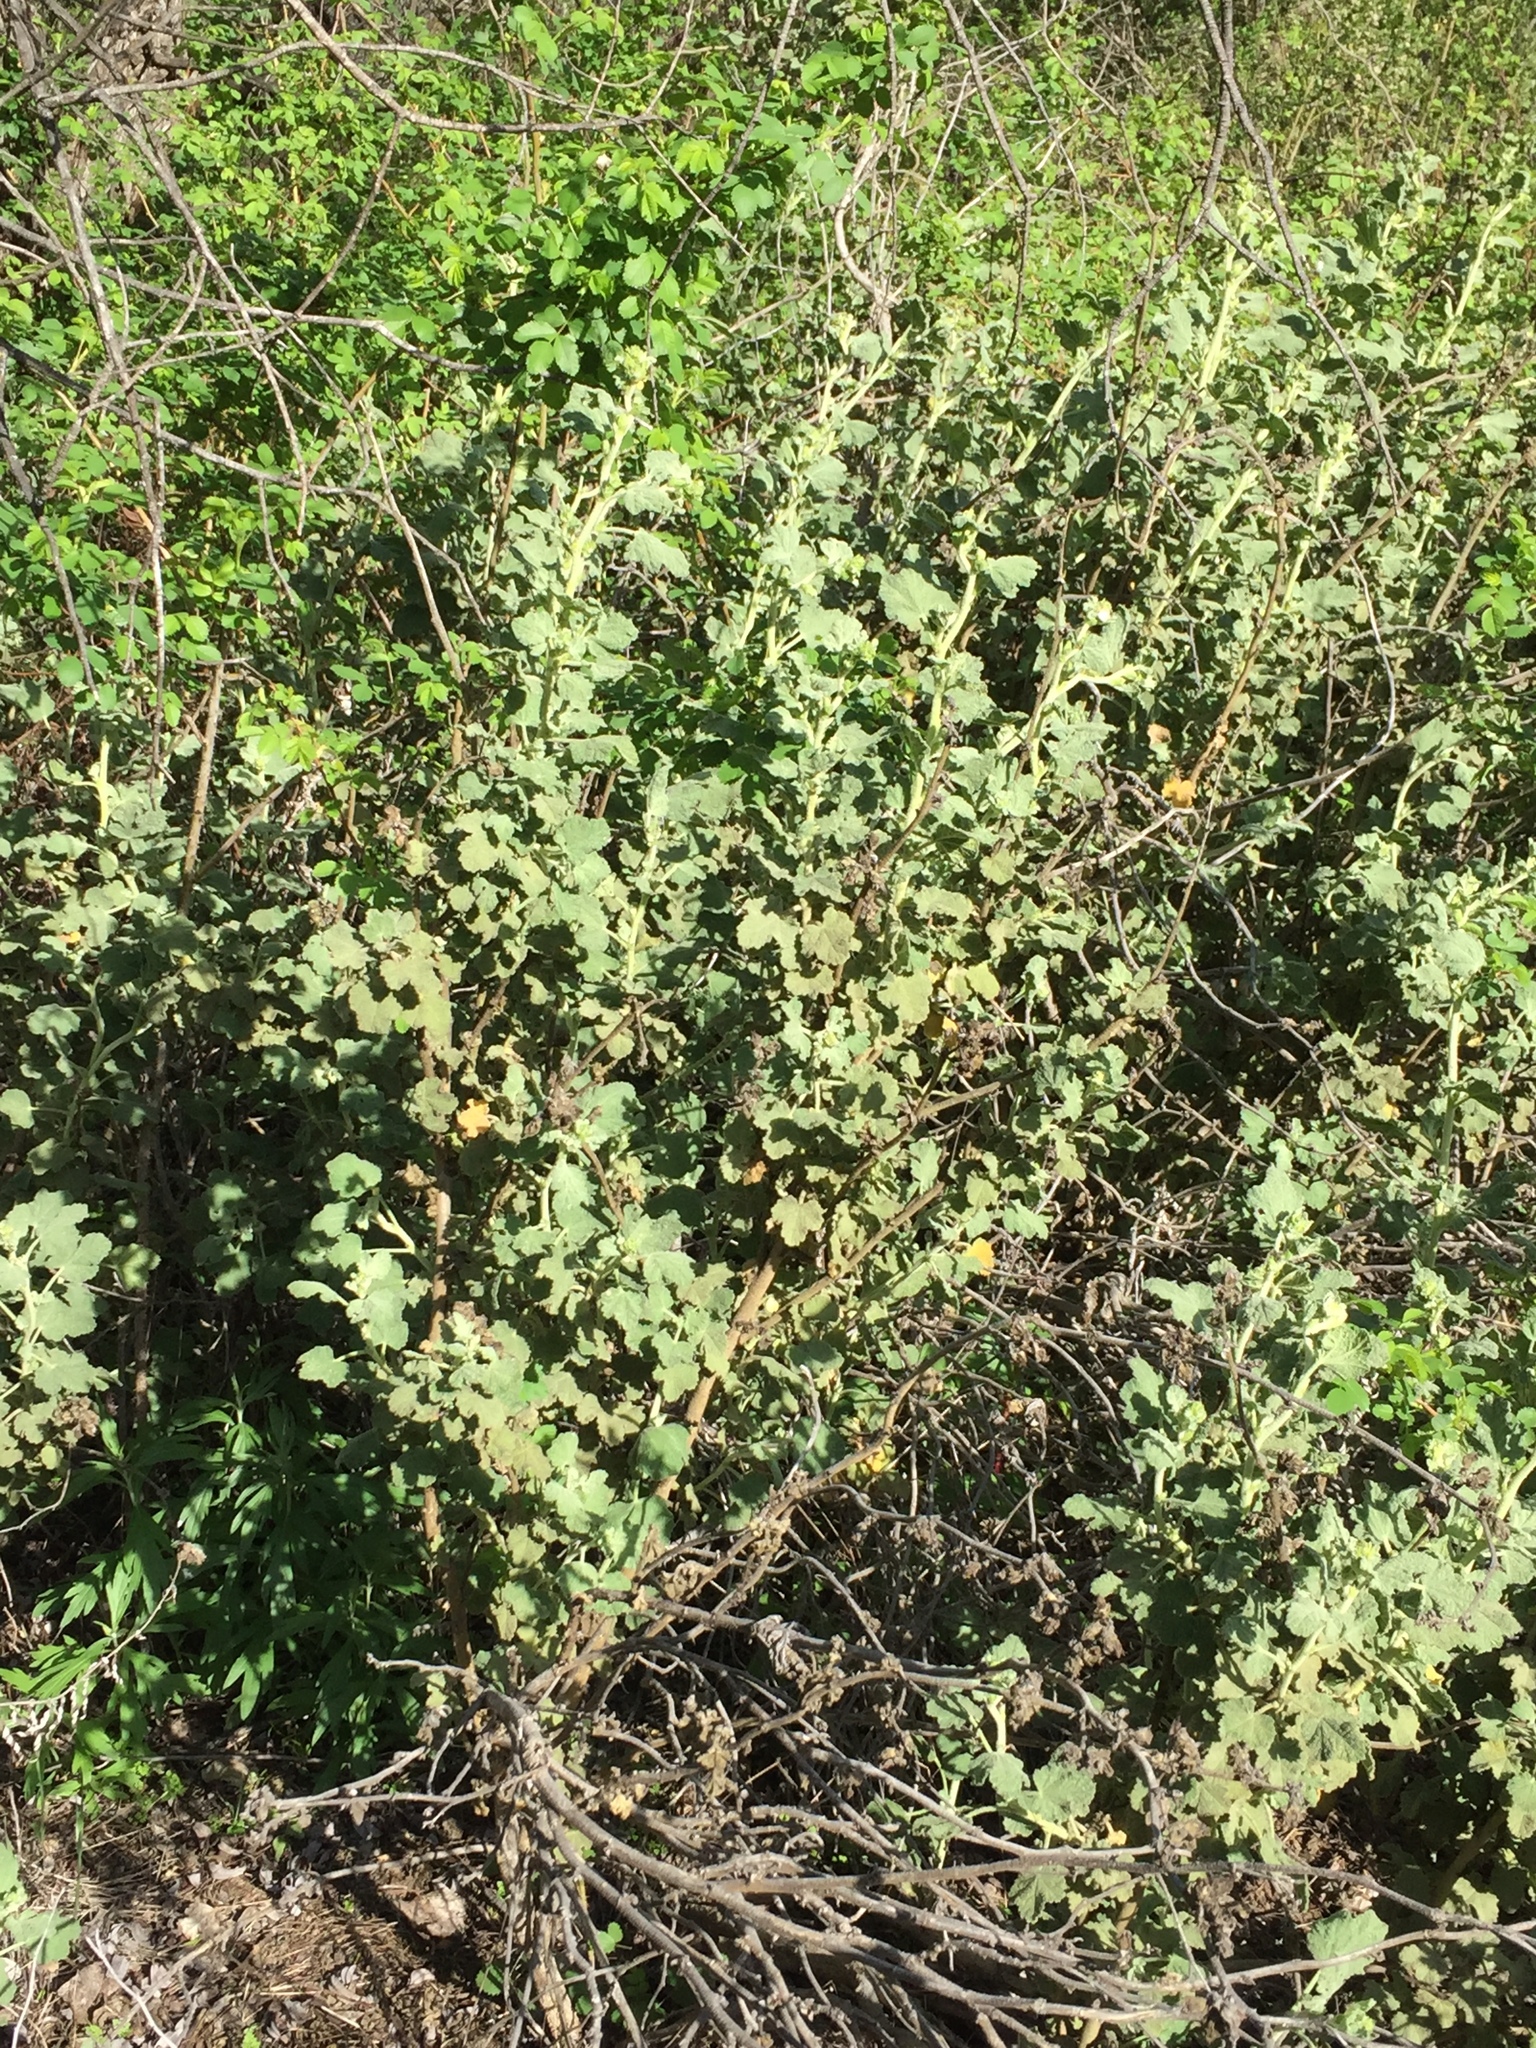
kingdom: Plantae
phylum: Tracheophyta
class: Magnoliopsida
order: Malvales
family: Malvaceae
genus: Malacothamnus
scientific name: Malacothamnus aboriginum
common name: Indian valley bush-mallow
